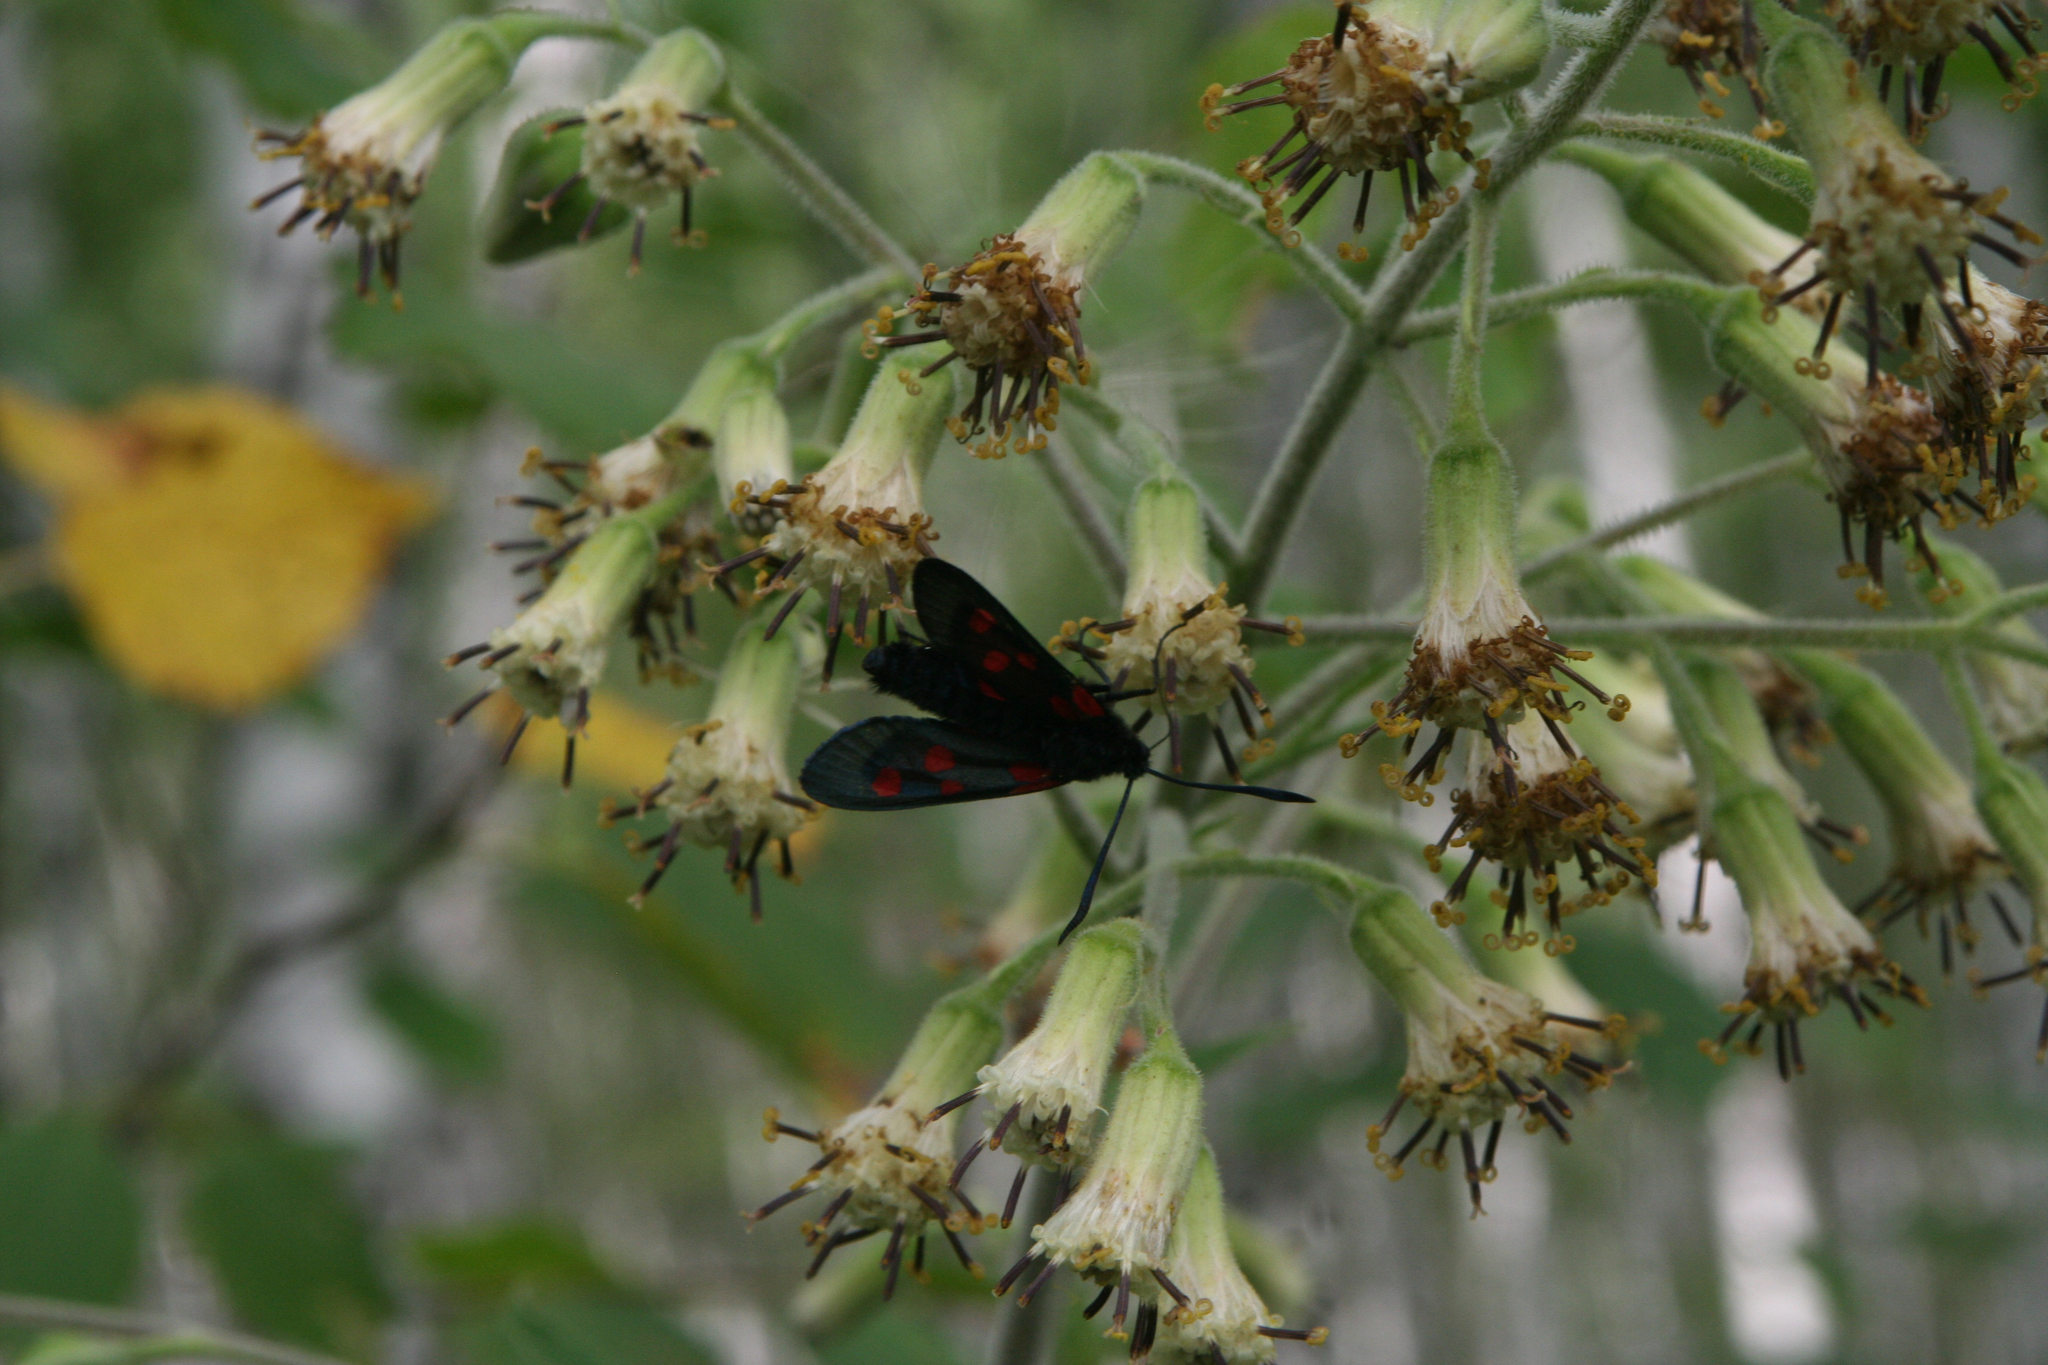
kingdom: Plantae
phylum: Tracheophyta
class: Magnoliopsida
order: Asterales
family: Asteraceae
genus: Parasenecio
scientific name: Parasenecio hastatus
